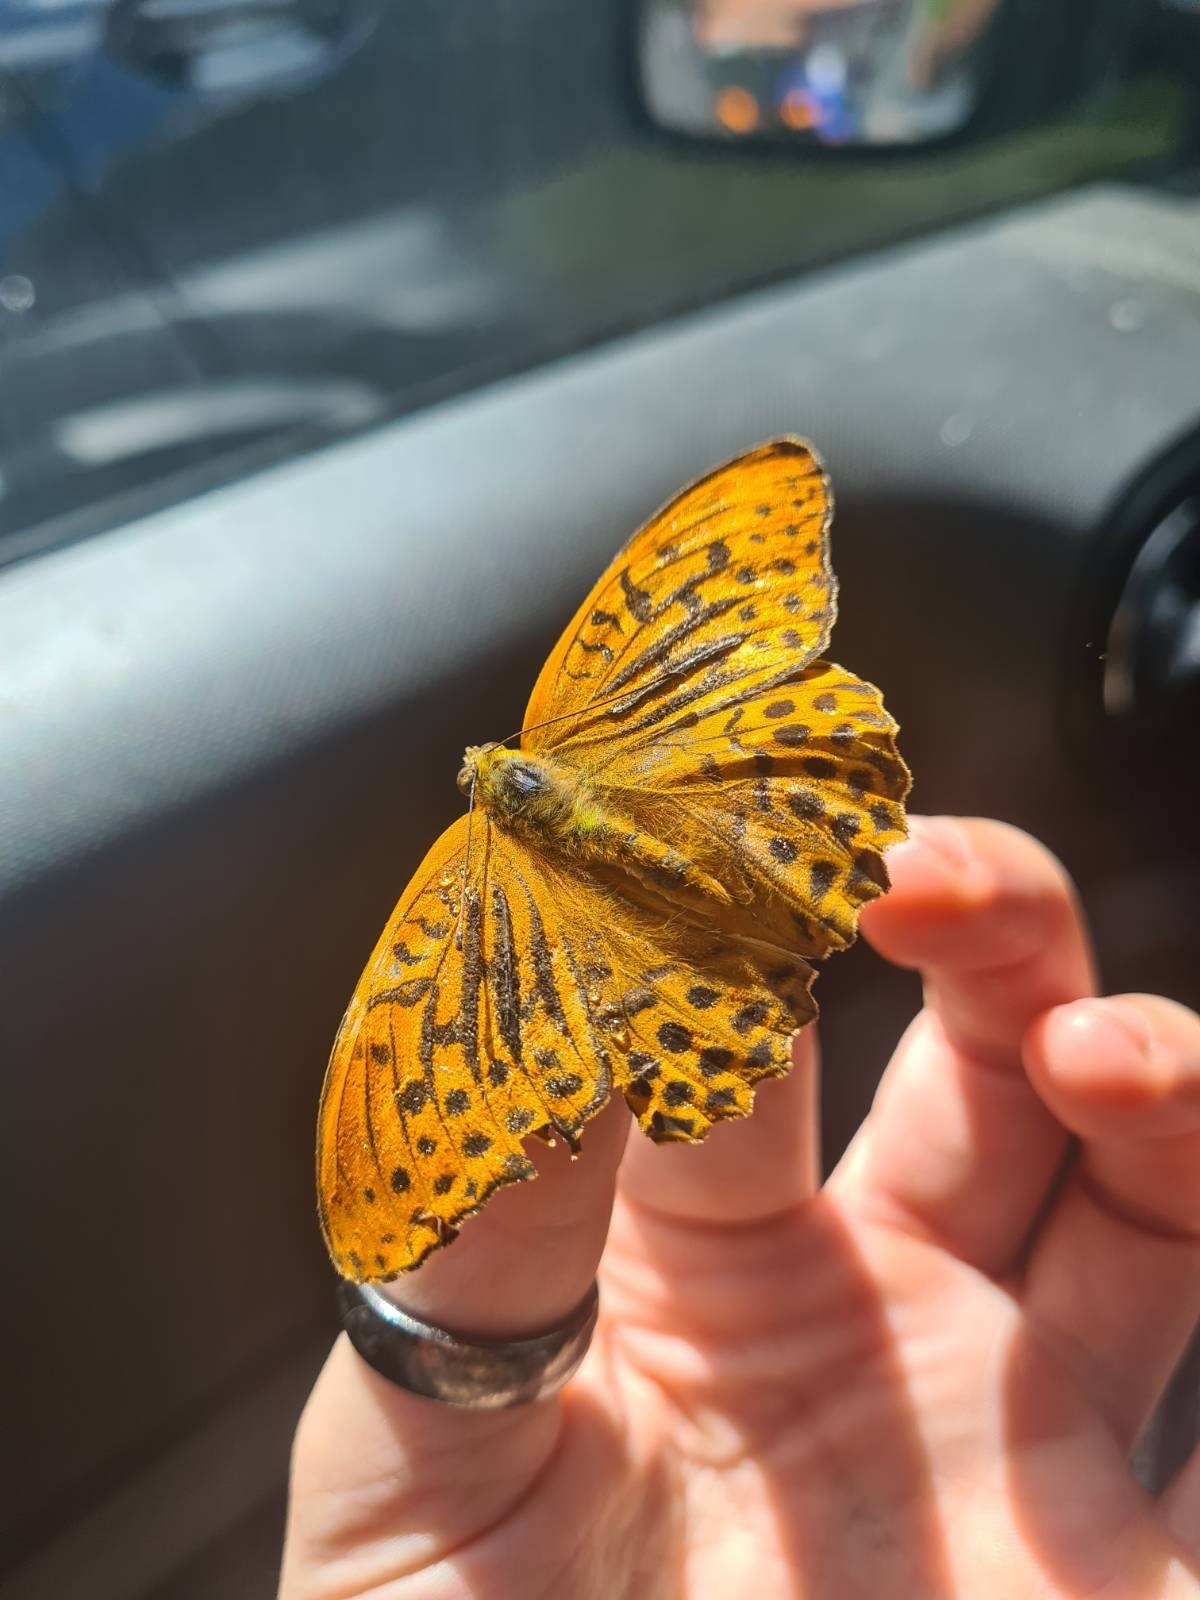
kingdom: Animalia
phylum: Arthropoda
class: Insecta
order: Lepidoptera
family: Nymphalidae
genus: Argynnis
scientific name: Argynnis paphia
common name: Silver-washed fritillary
